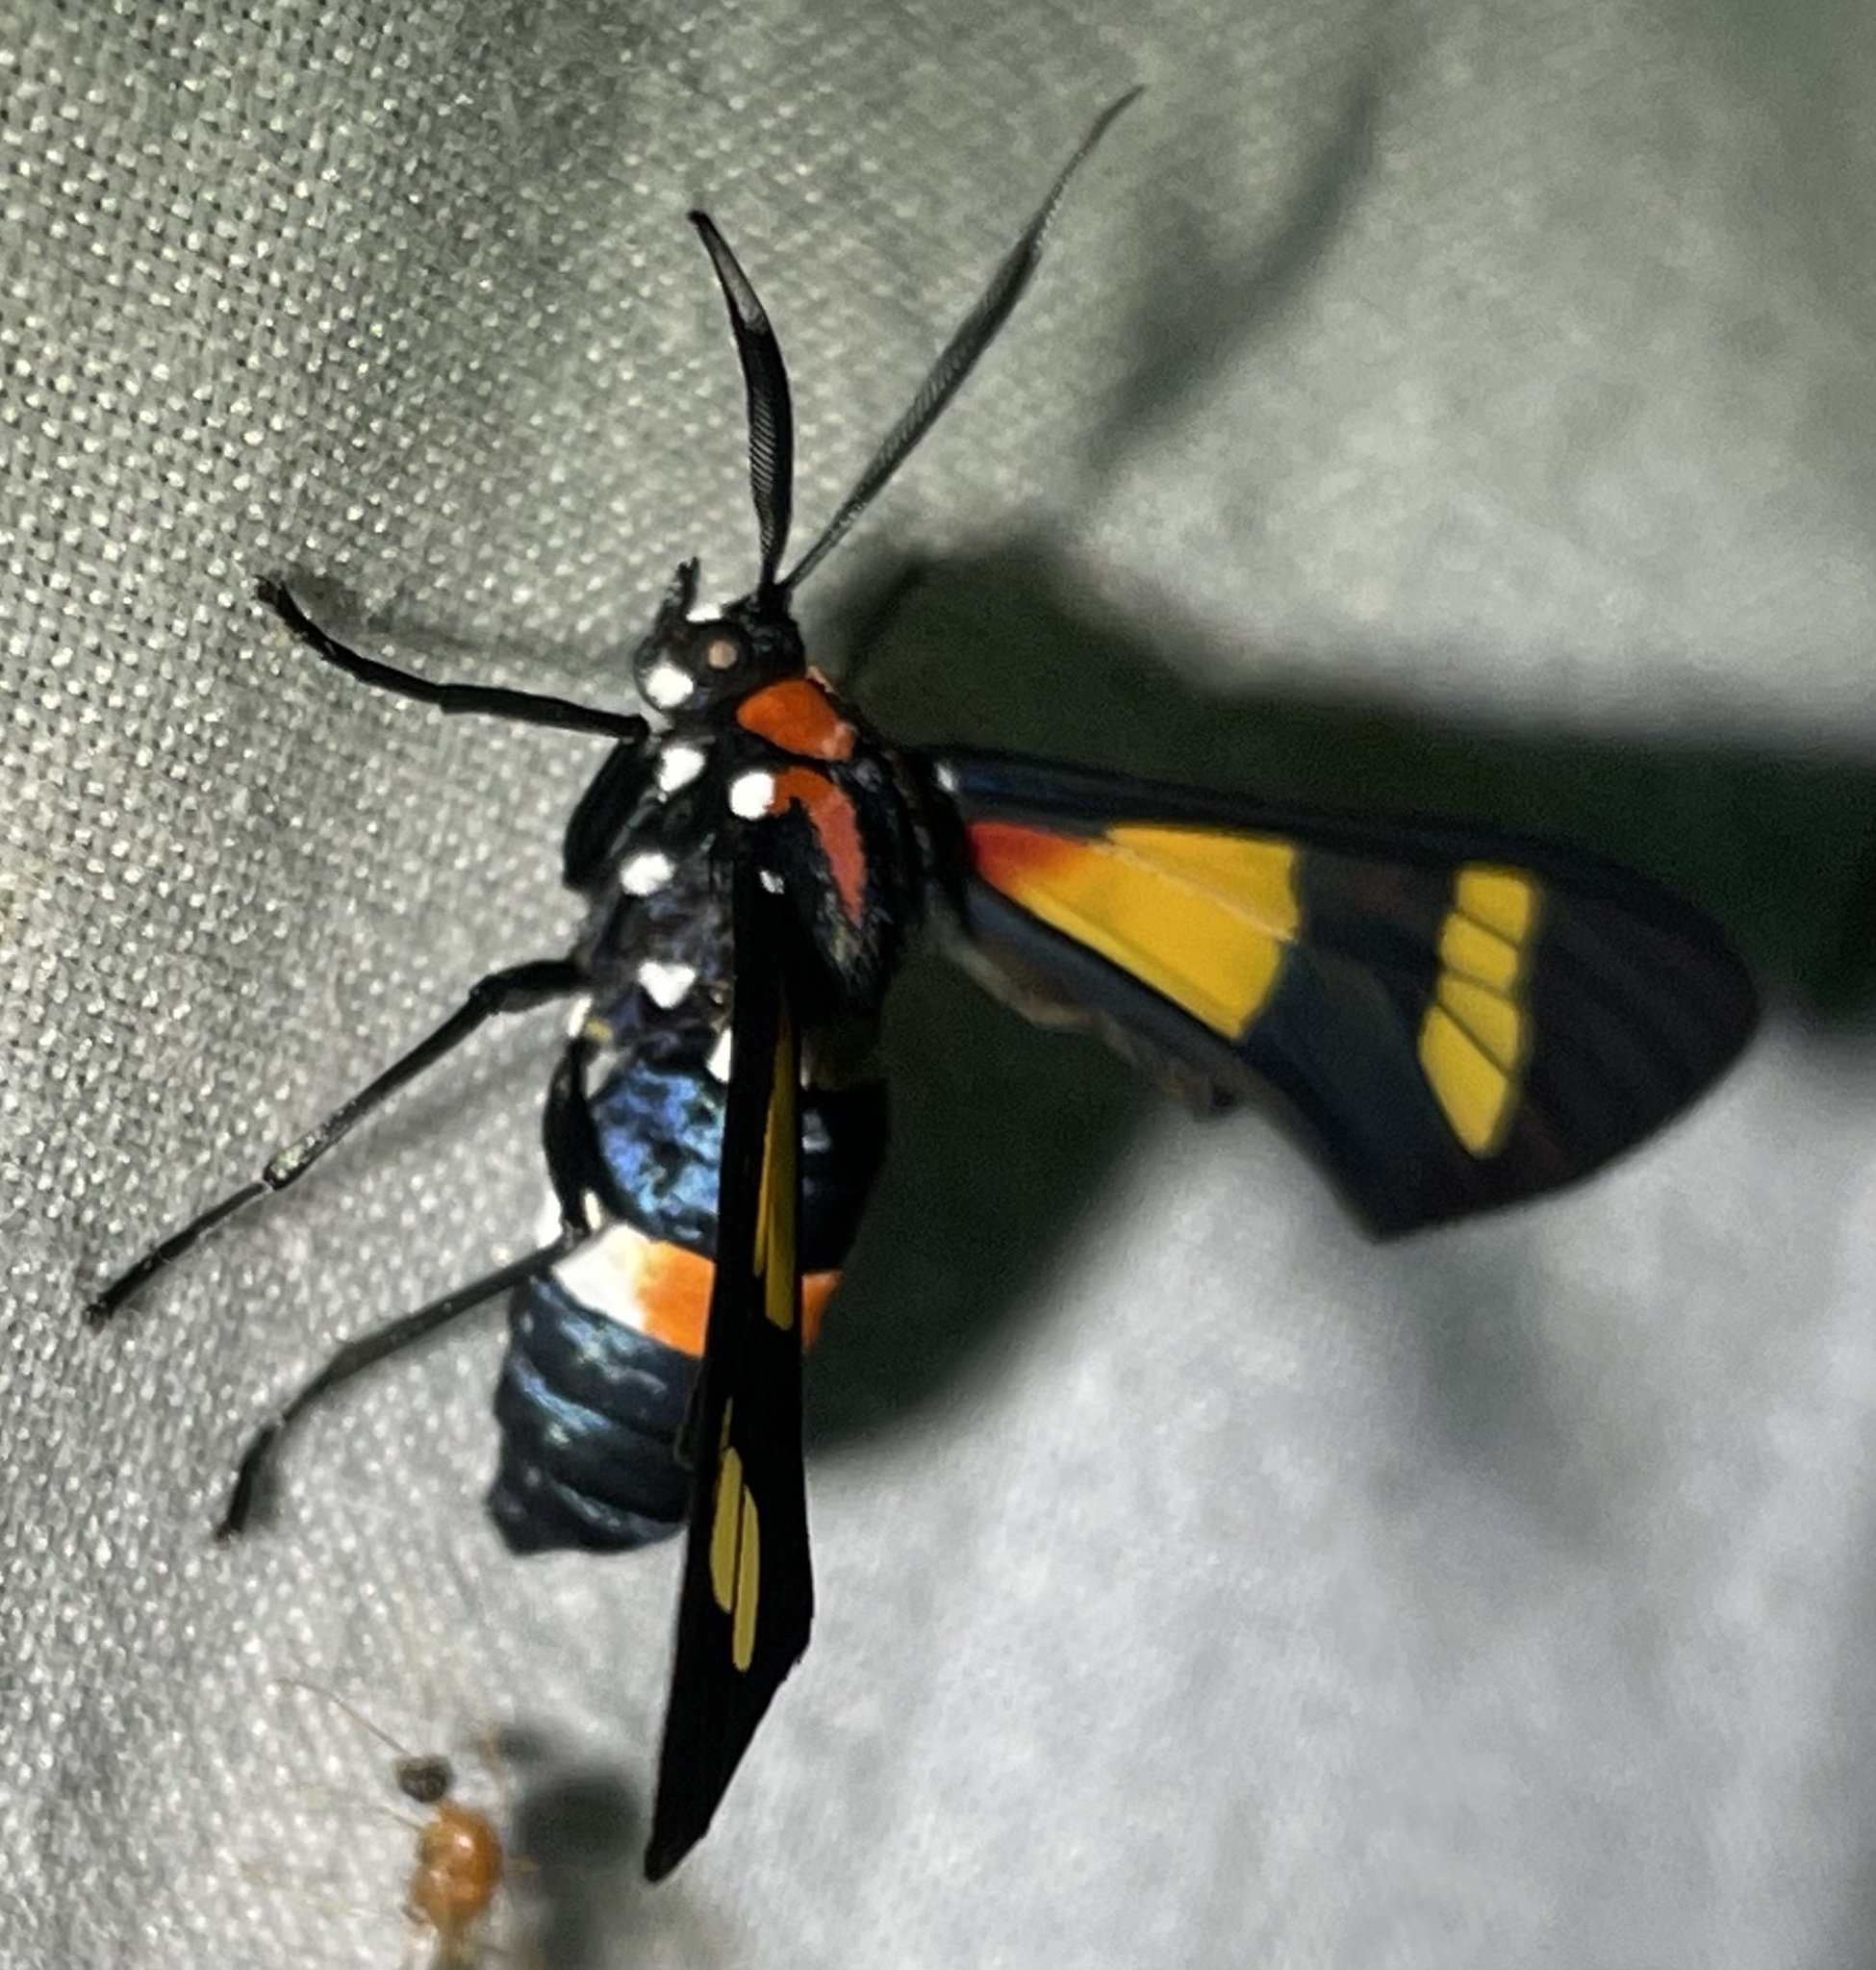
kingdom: Animalia
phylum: Arthropoda
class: Insecta
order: Lepidoptera
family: Erebidae
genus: Euchromia
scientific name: Euchromia amoena
